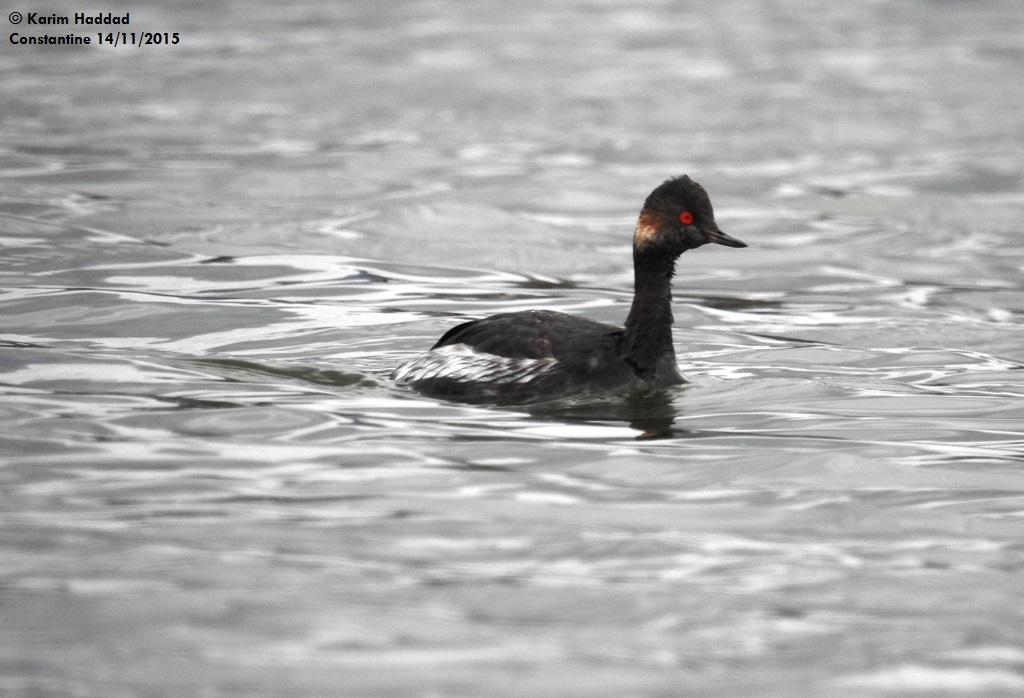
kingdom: Animalia
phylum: Chordata
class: Aves
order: Podicipediformes
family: Podicipedidae
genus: Podiceps
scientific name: Podiceps nigricollis
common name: Black-necked grebe
